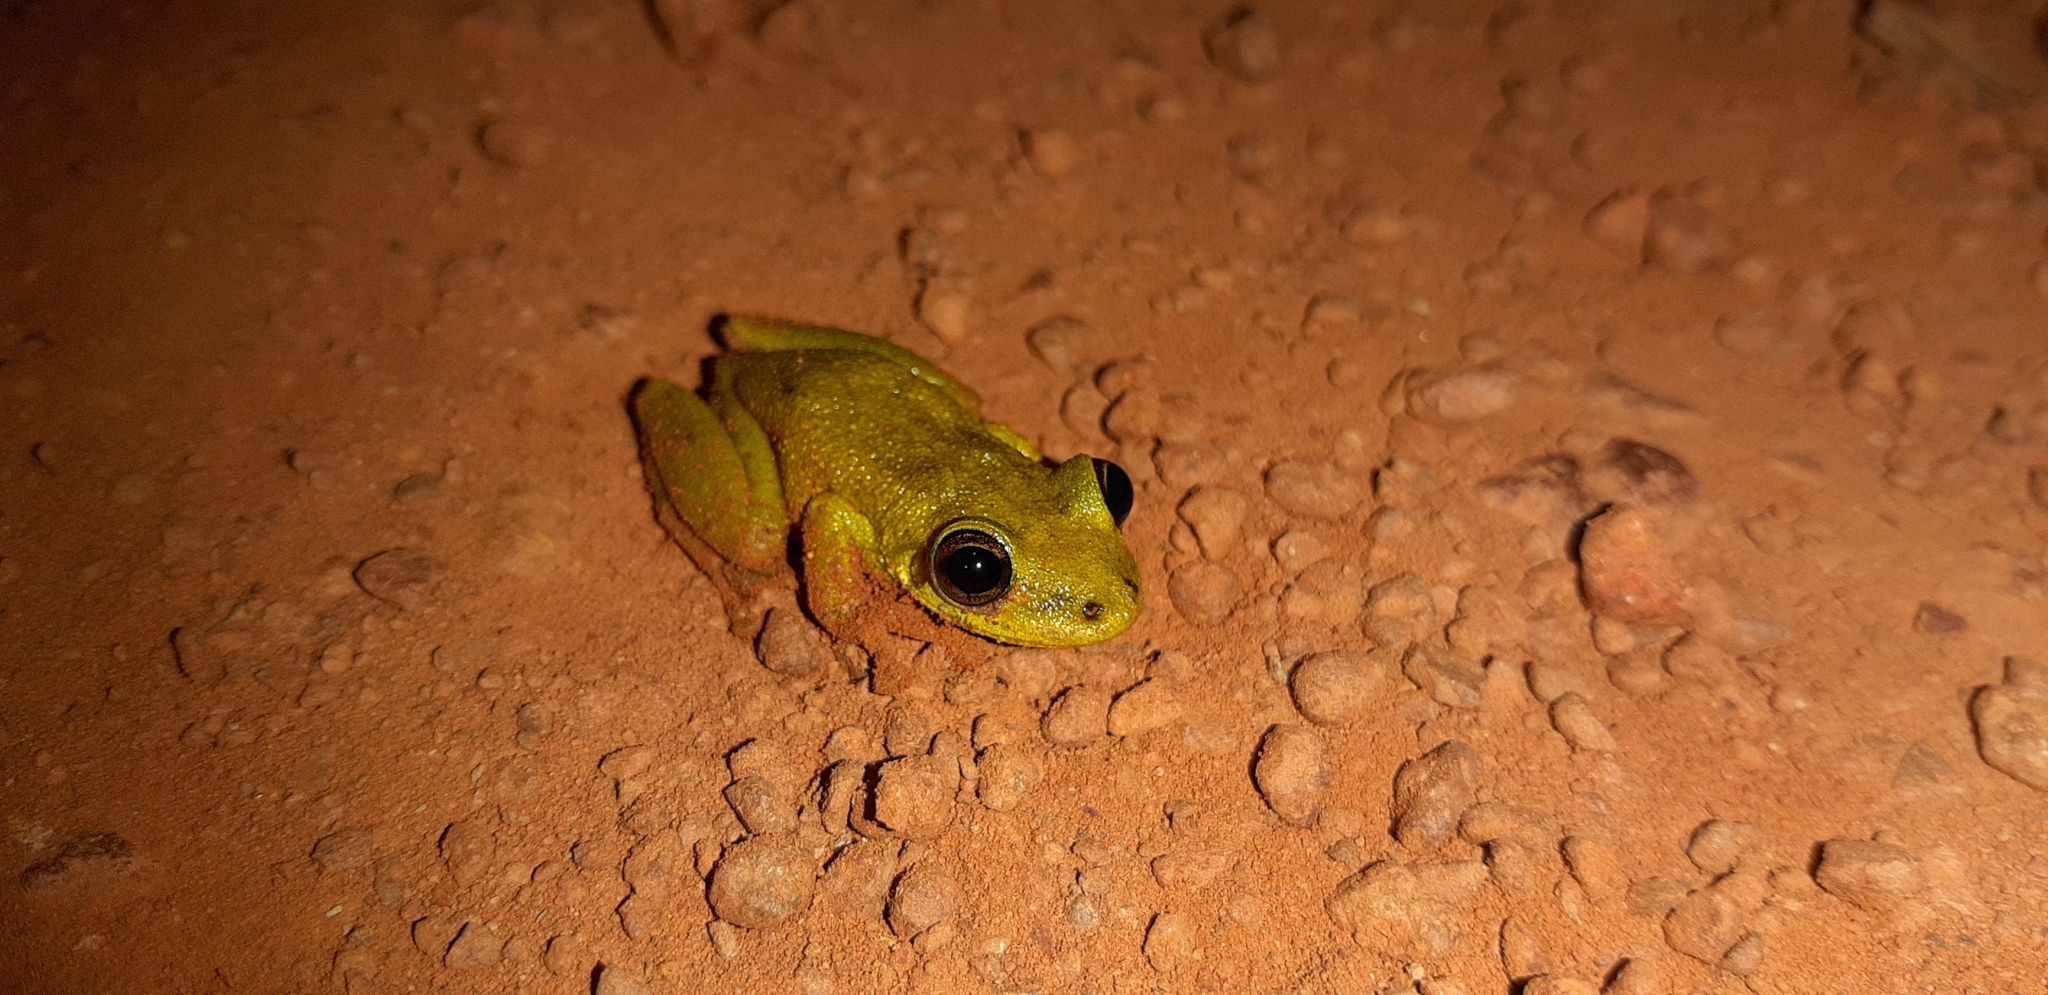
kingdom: Animalia
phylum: Chordata
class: Amphibia
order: Anura
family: Hylidae
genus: Scinax
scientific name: Scinax ruber
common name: Red snouted treefrog
